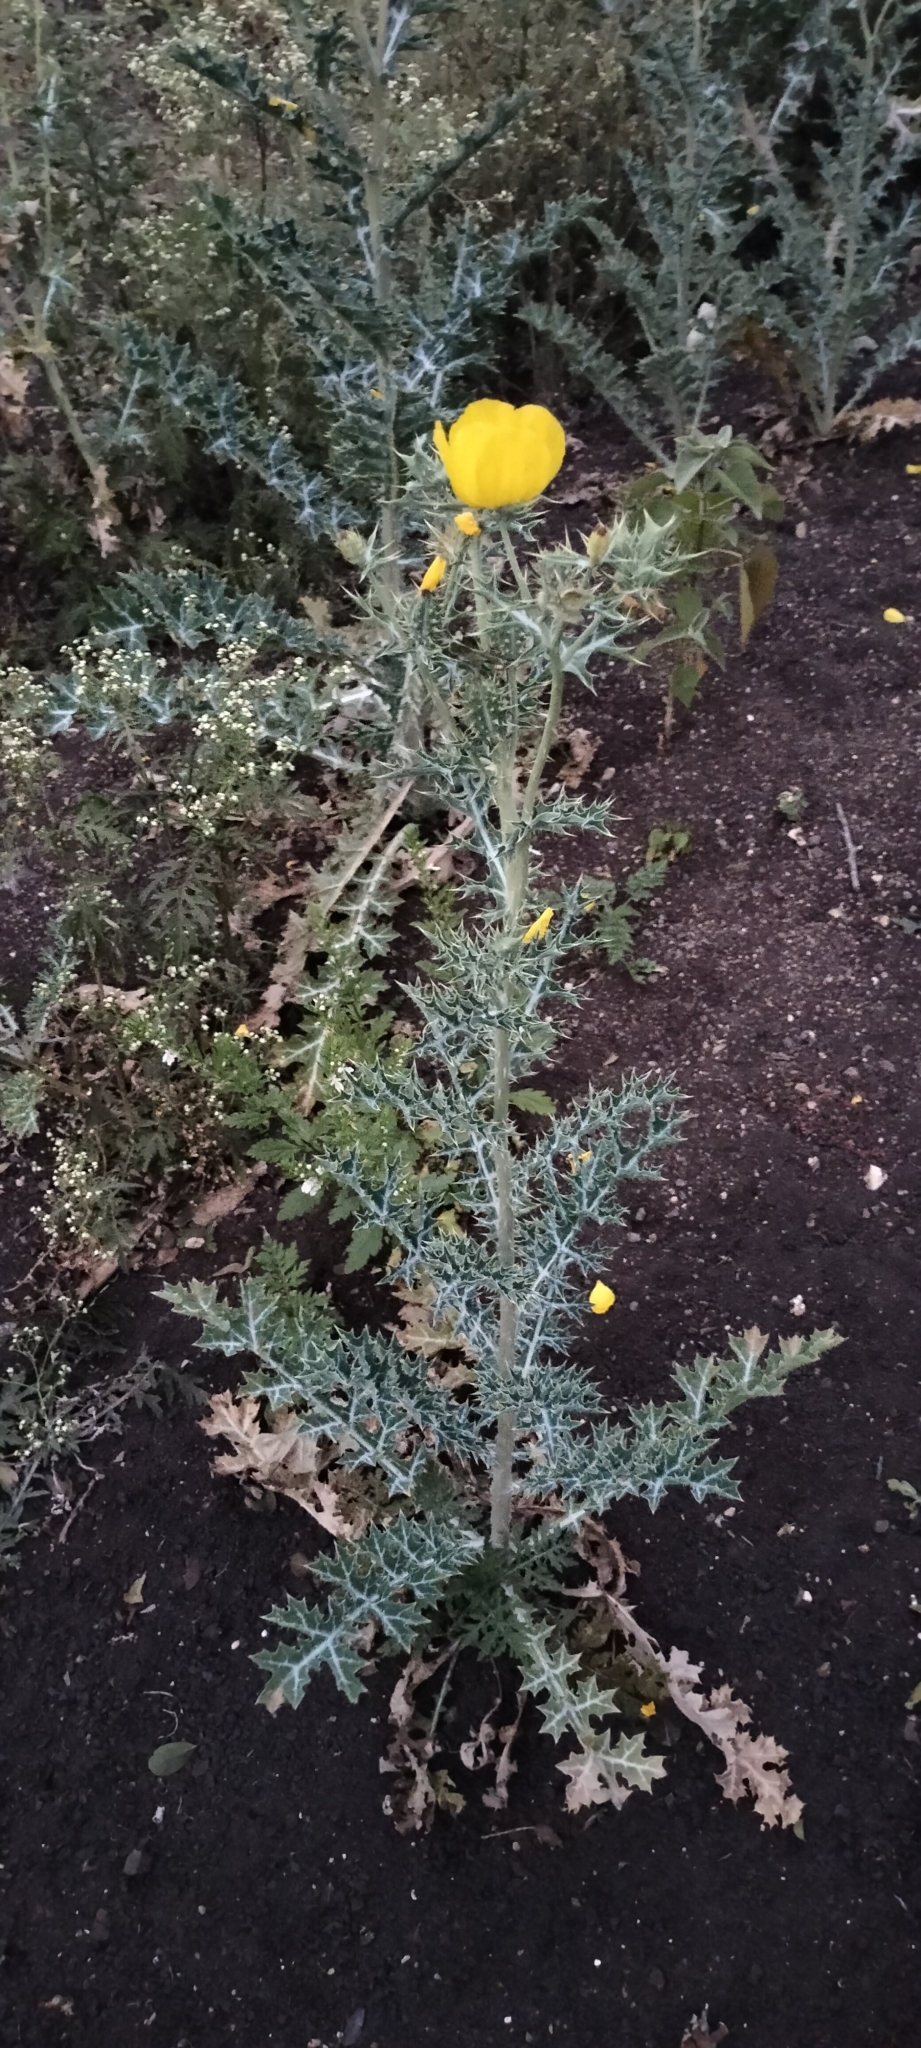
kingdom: Plantae
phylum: Tracheophyta
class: Magnoliopsida
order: Ranunculales
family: Papaveraceae
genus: Argemone
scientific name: Argemone mexicana
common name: Mexican poppy
